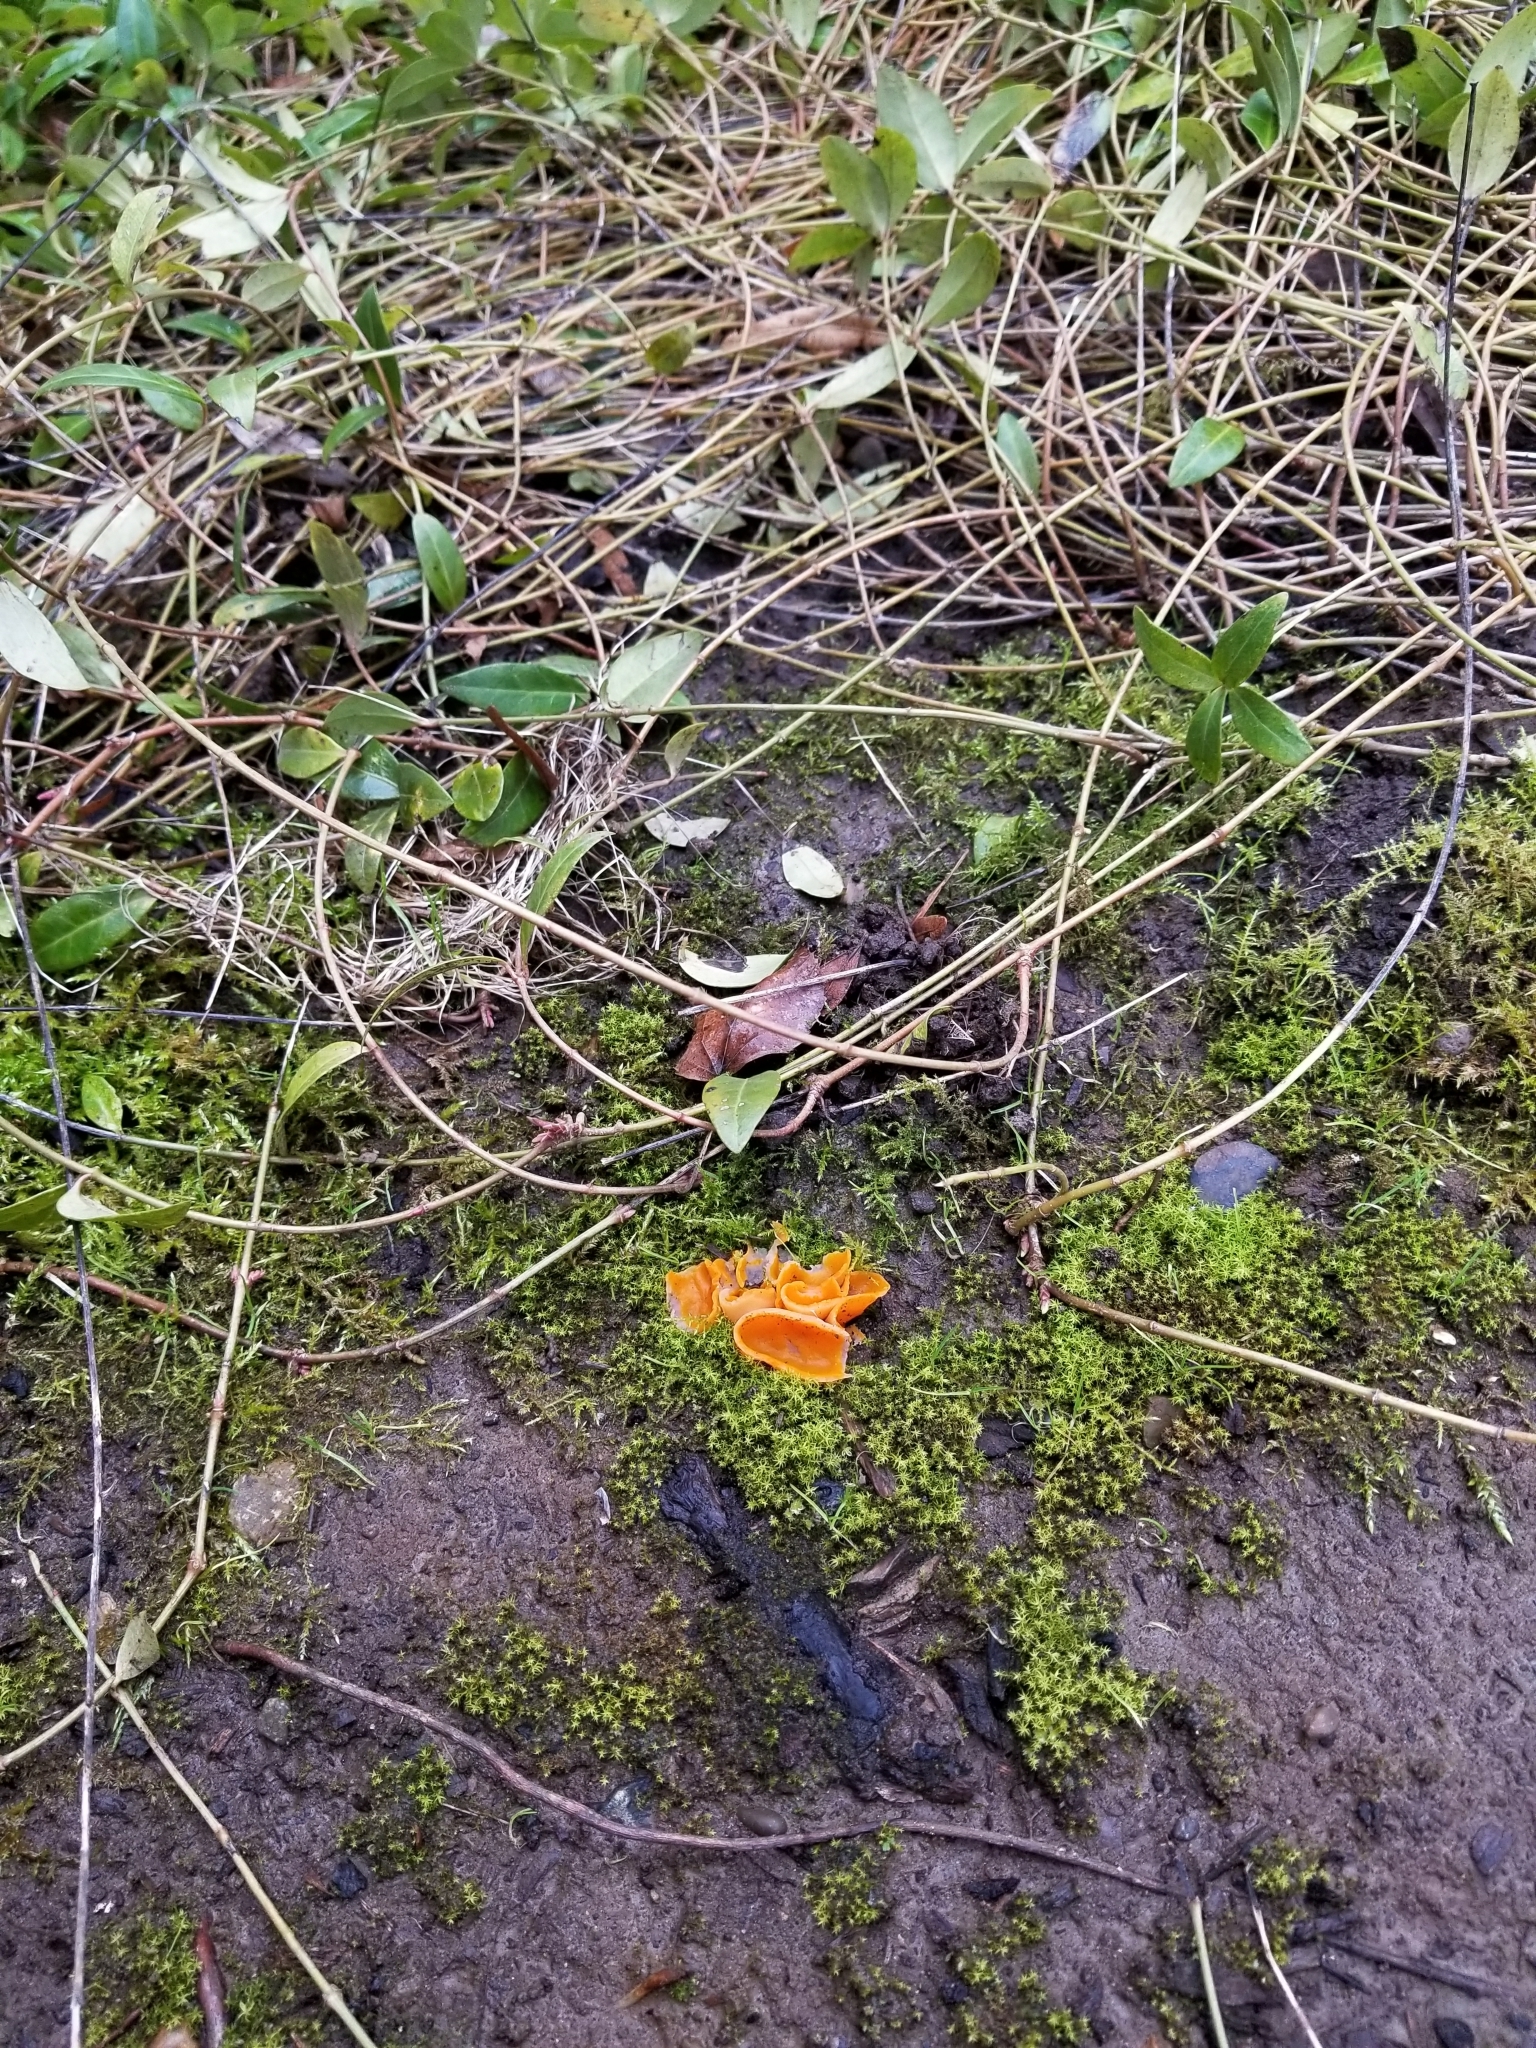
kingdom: Fungi
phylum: Ascomycota
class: Pezizomycetes
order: Pezizales
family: Pyronemataceae
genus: Aleuria
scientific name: Aleuria aurantia
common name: Orange peel fungus
